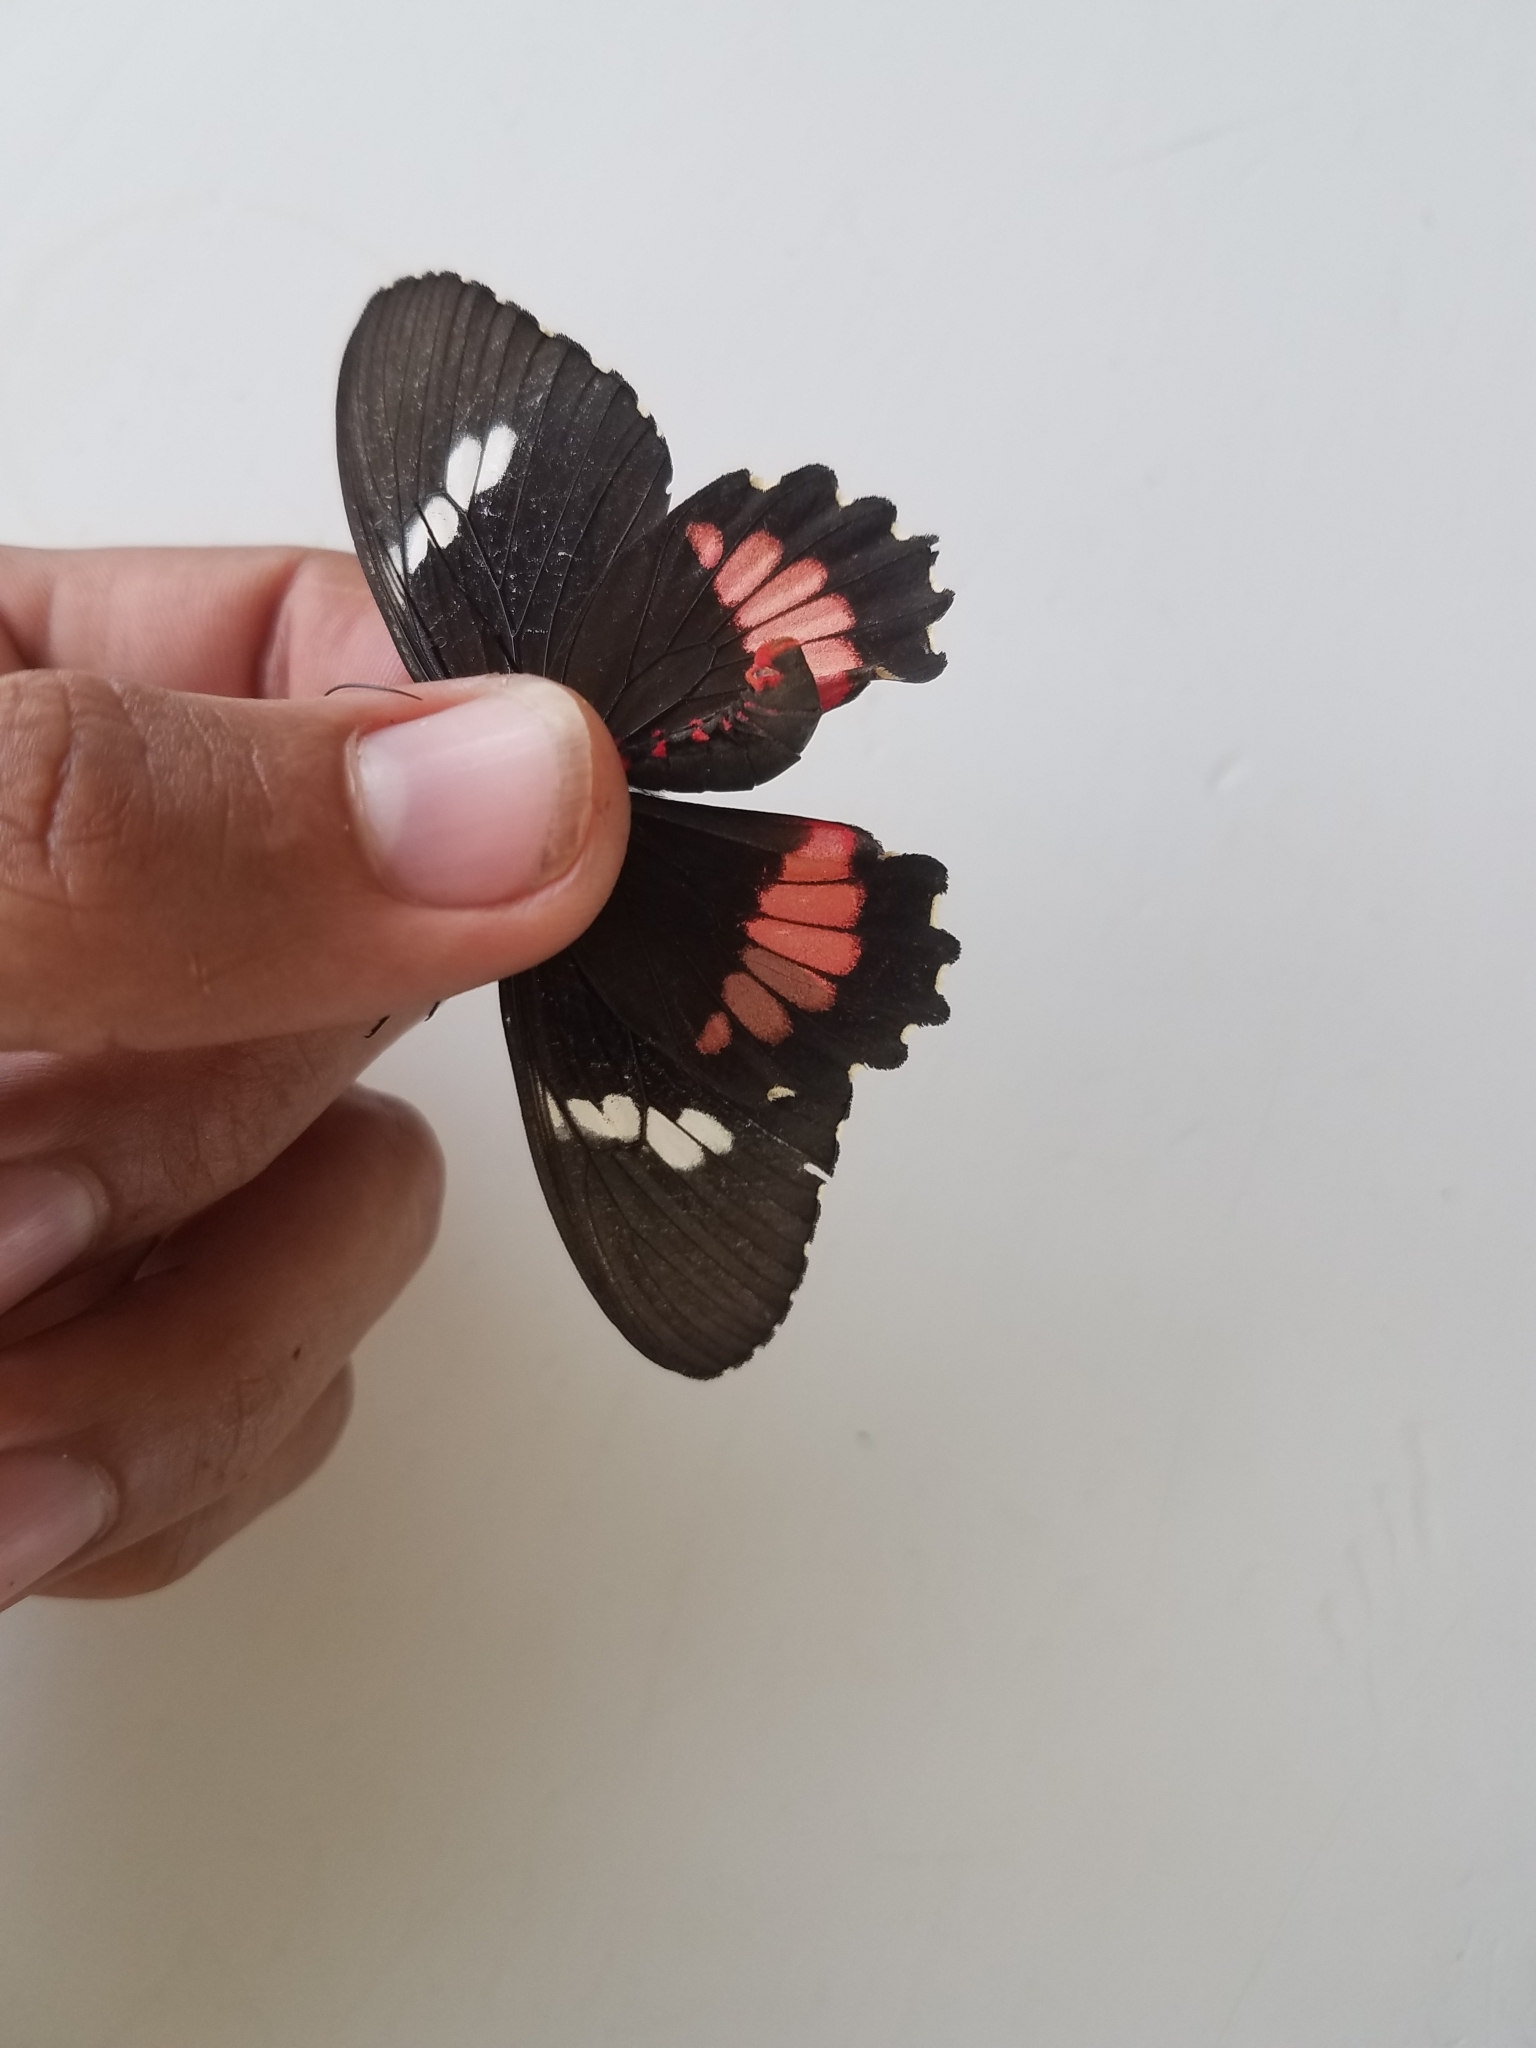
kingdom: Animalia
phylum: Arthropoda
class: Insecta
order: Lepidoptera
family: Papilionidae
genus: Parides
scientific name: Parides iphidamas
